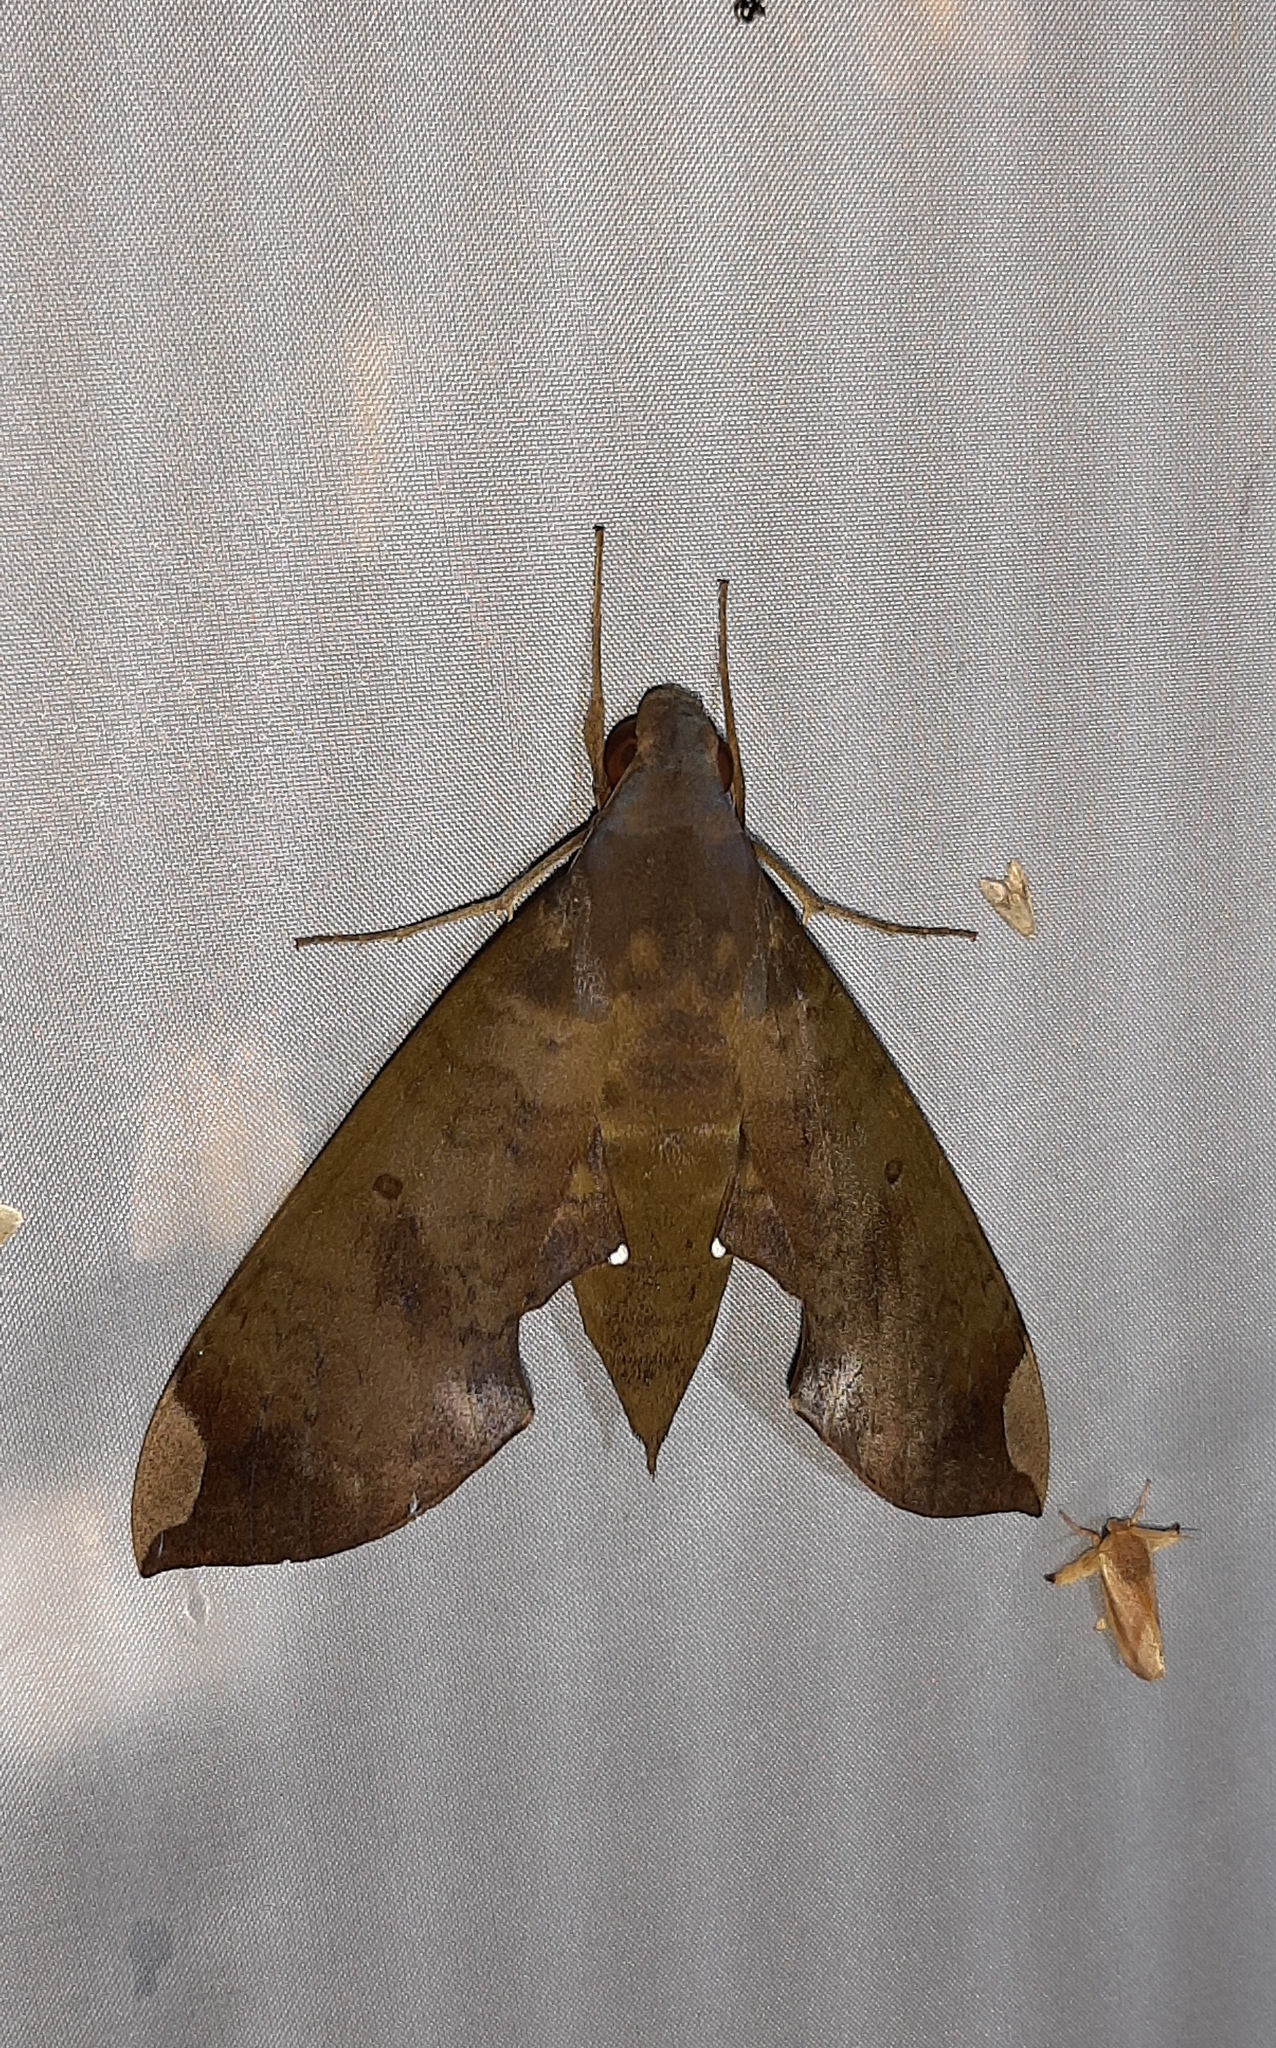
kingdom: Animalia
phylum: Arthropoda
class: Insecta
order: Lepidoptera
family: Sphingidae
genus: Pachylia
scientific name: Pachylia ficus
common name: Fig sphinx
